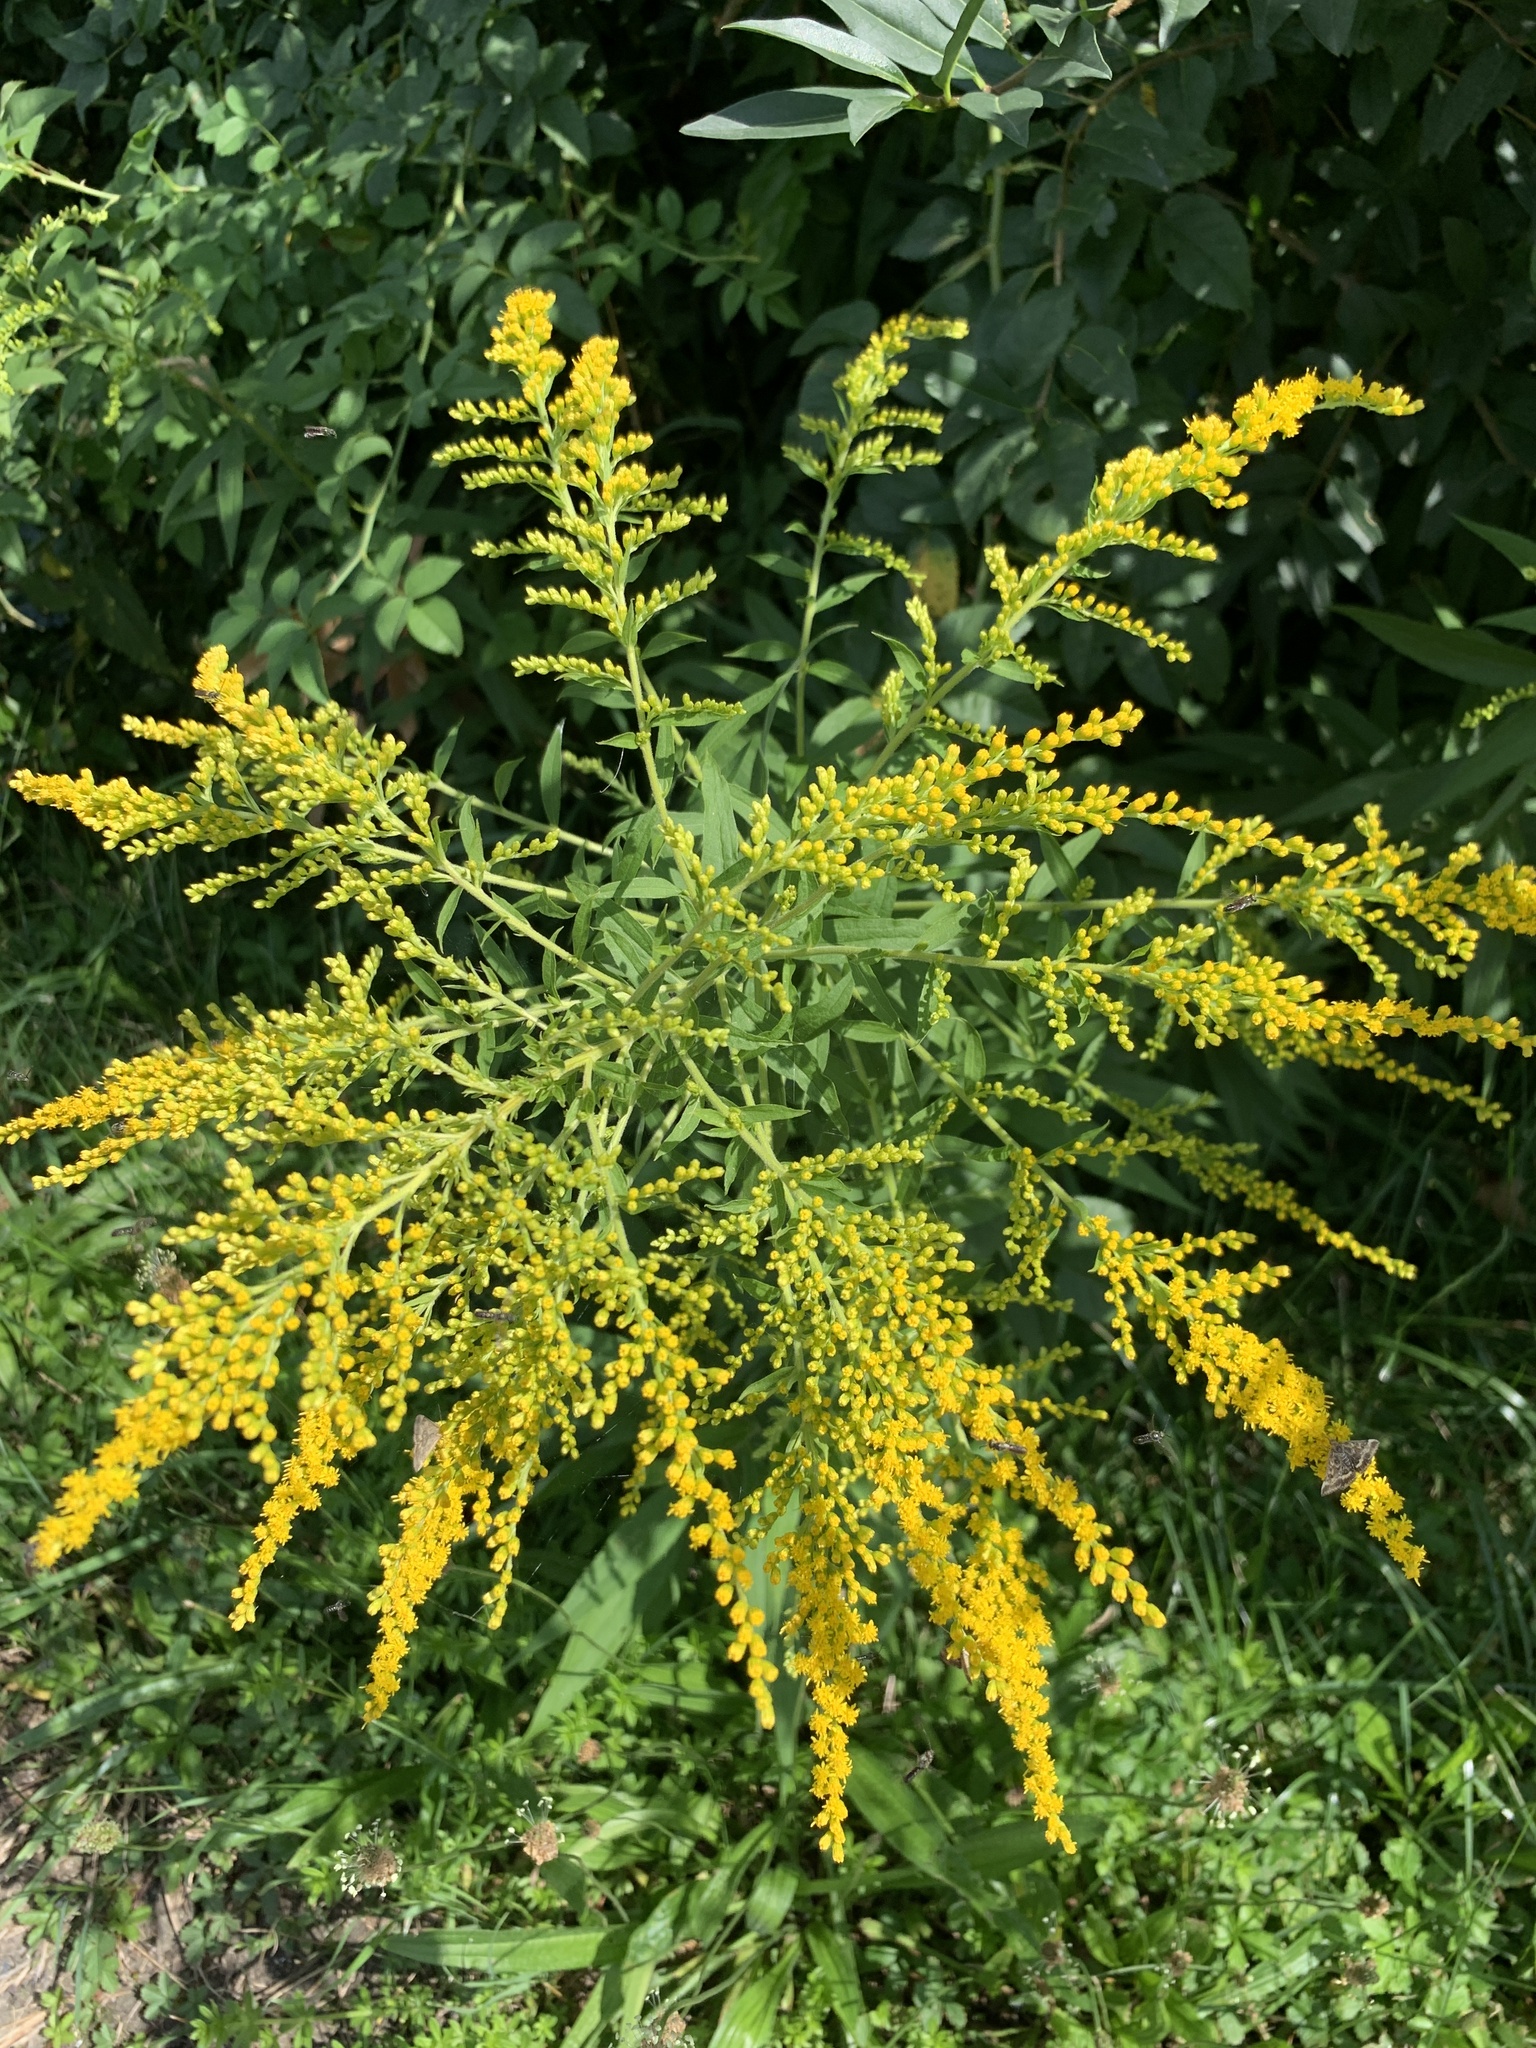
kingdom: Plantae
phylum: Tracheophyta
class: Magnoliopsida
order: Asterales
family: Asteraceae
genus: Solidago
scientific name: Solidago canadensis
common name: Canada goldenrod
